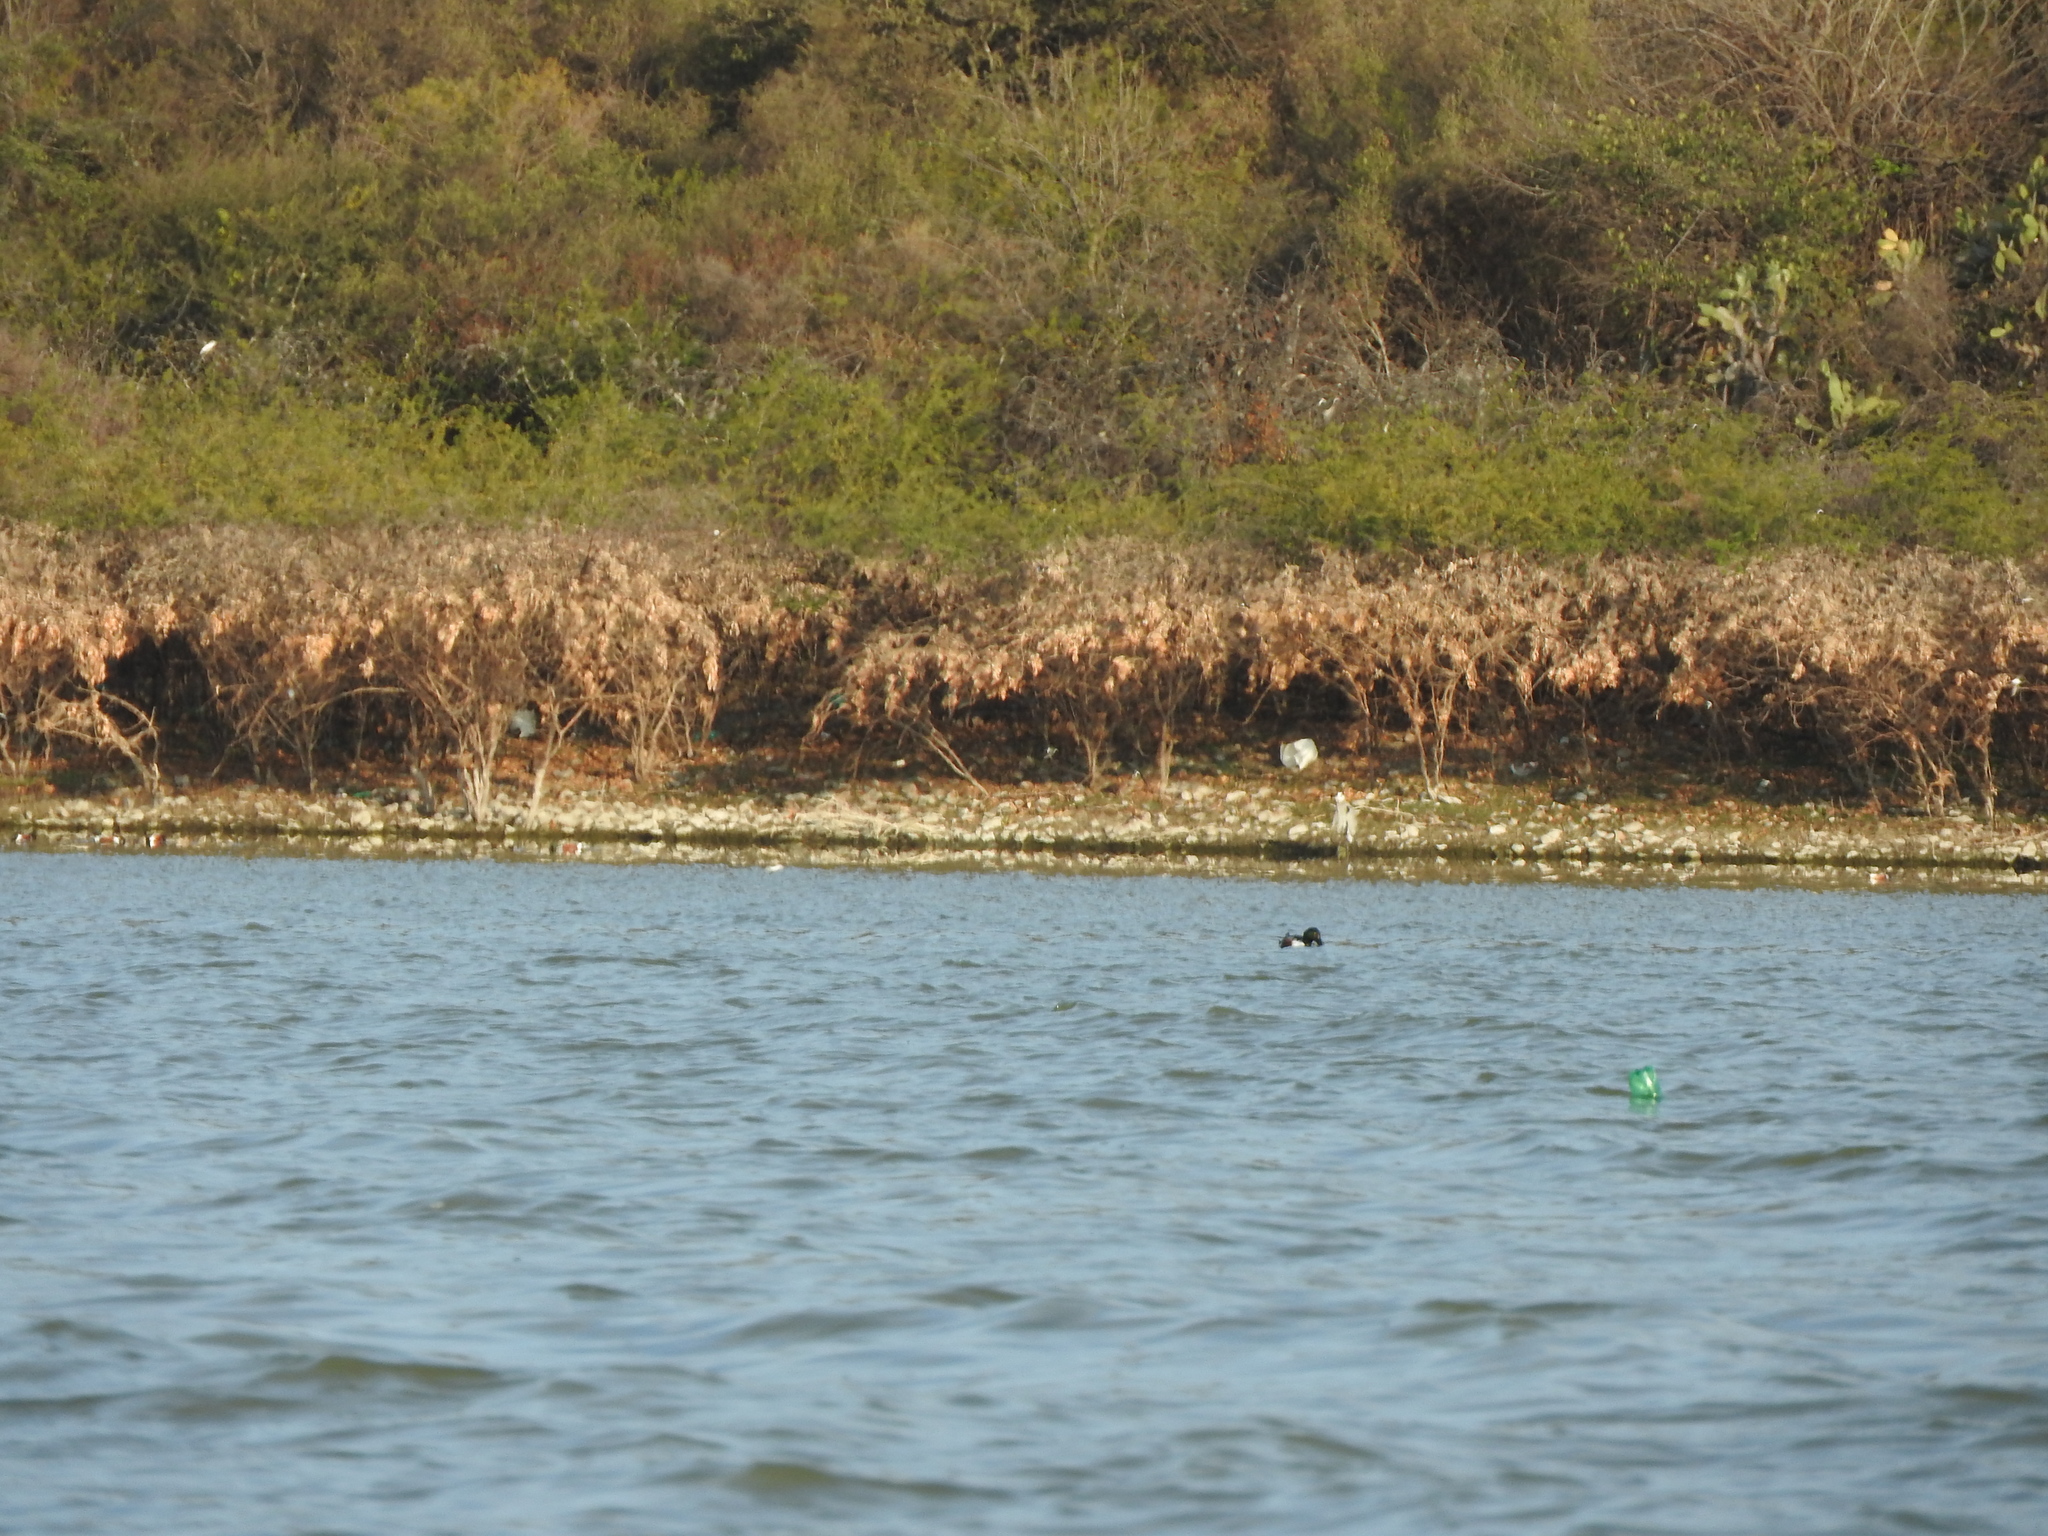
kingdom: Animalia
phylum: Chordata
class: Aves
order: Anseriformes
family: Anatidae
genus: Spatula
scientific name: Spatula clypeata
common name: Northern shoveler
